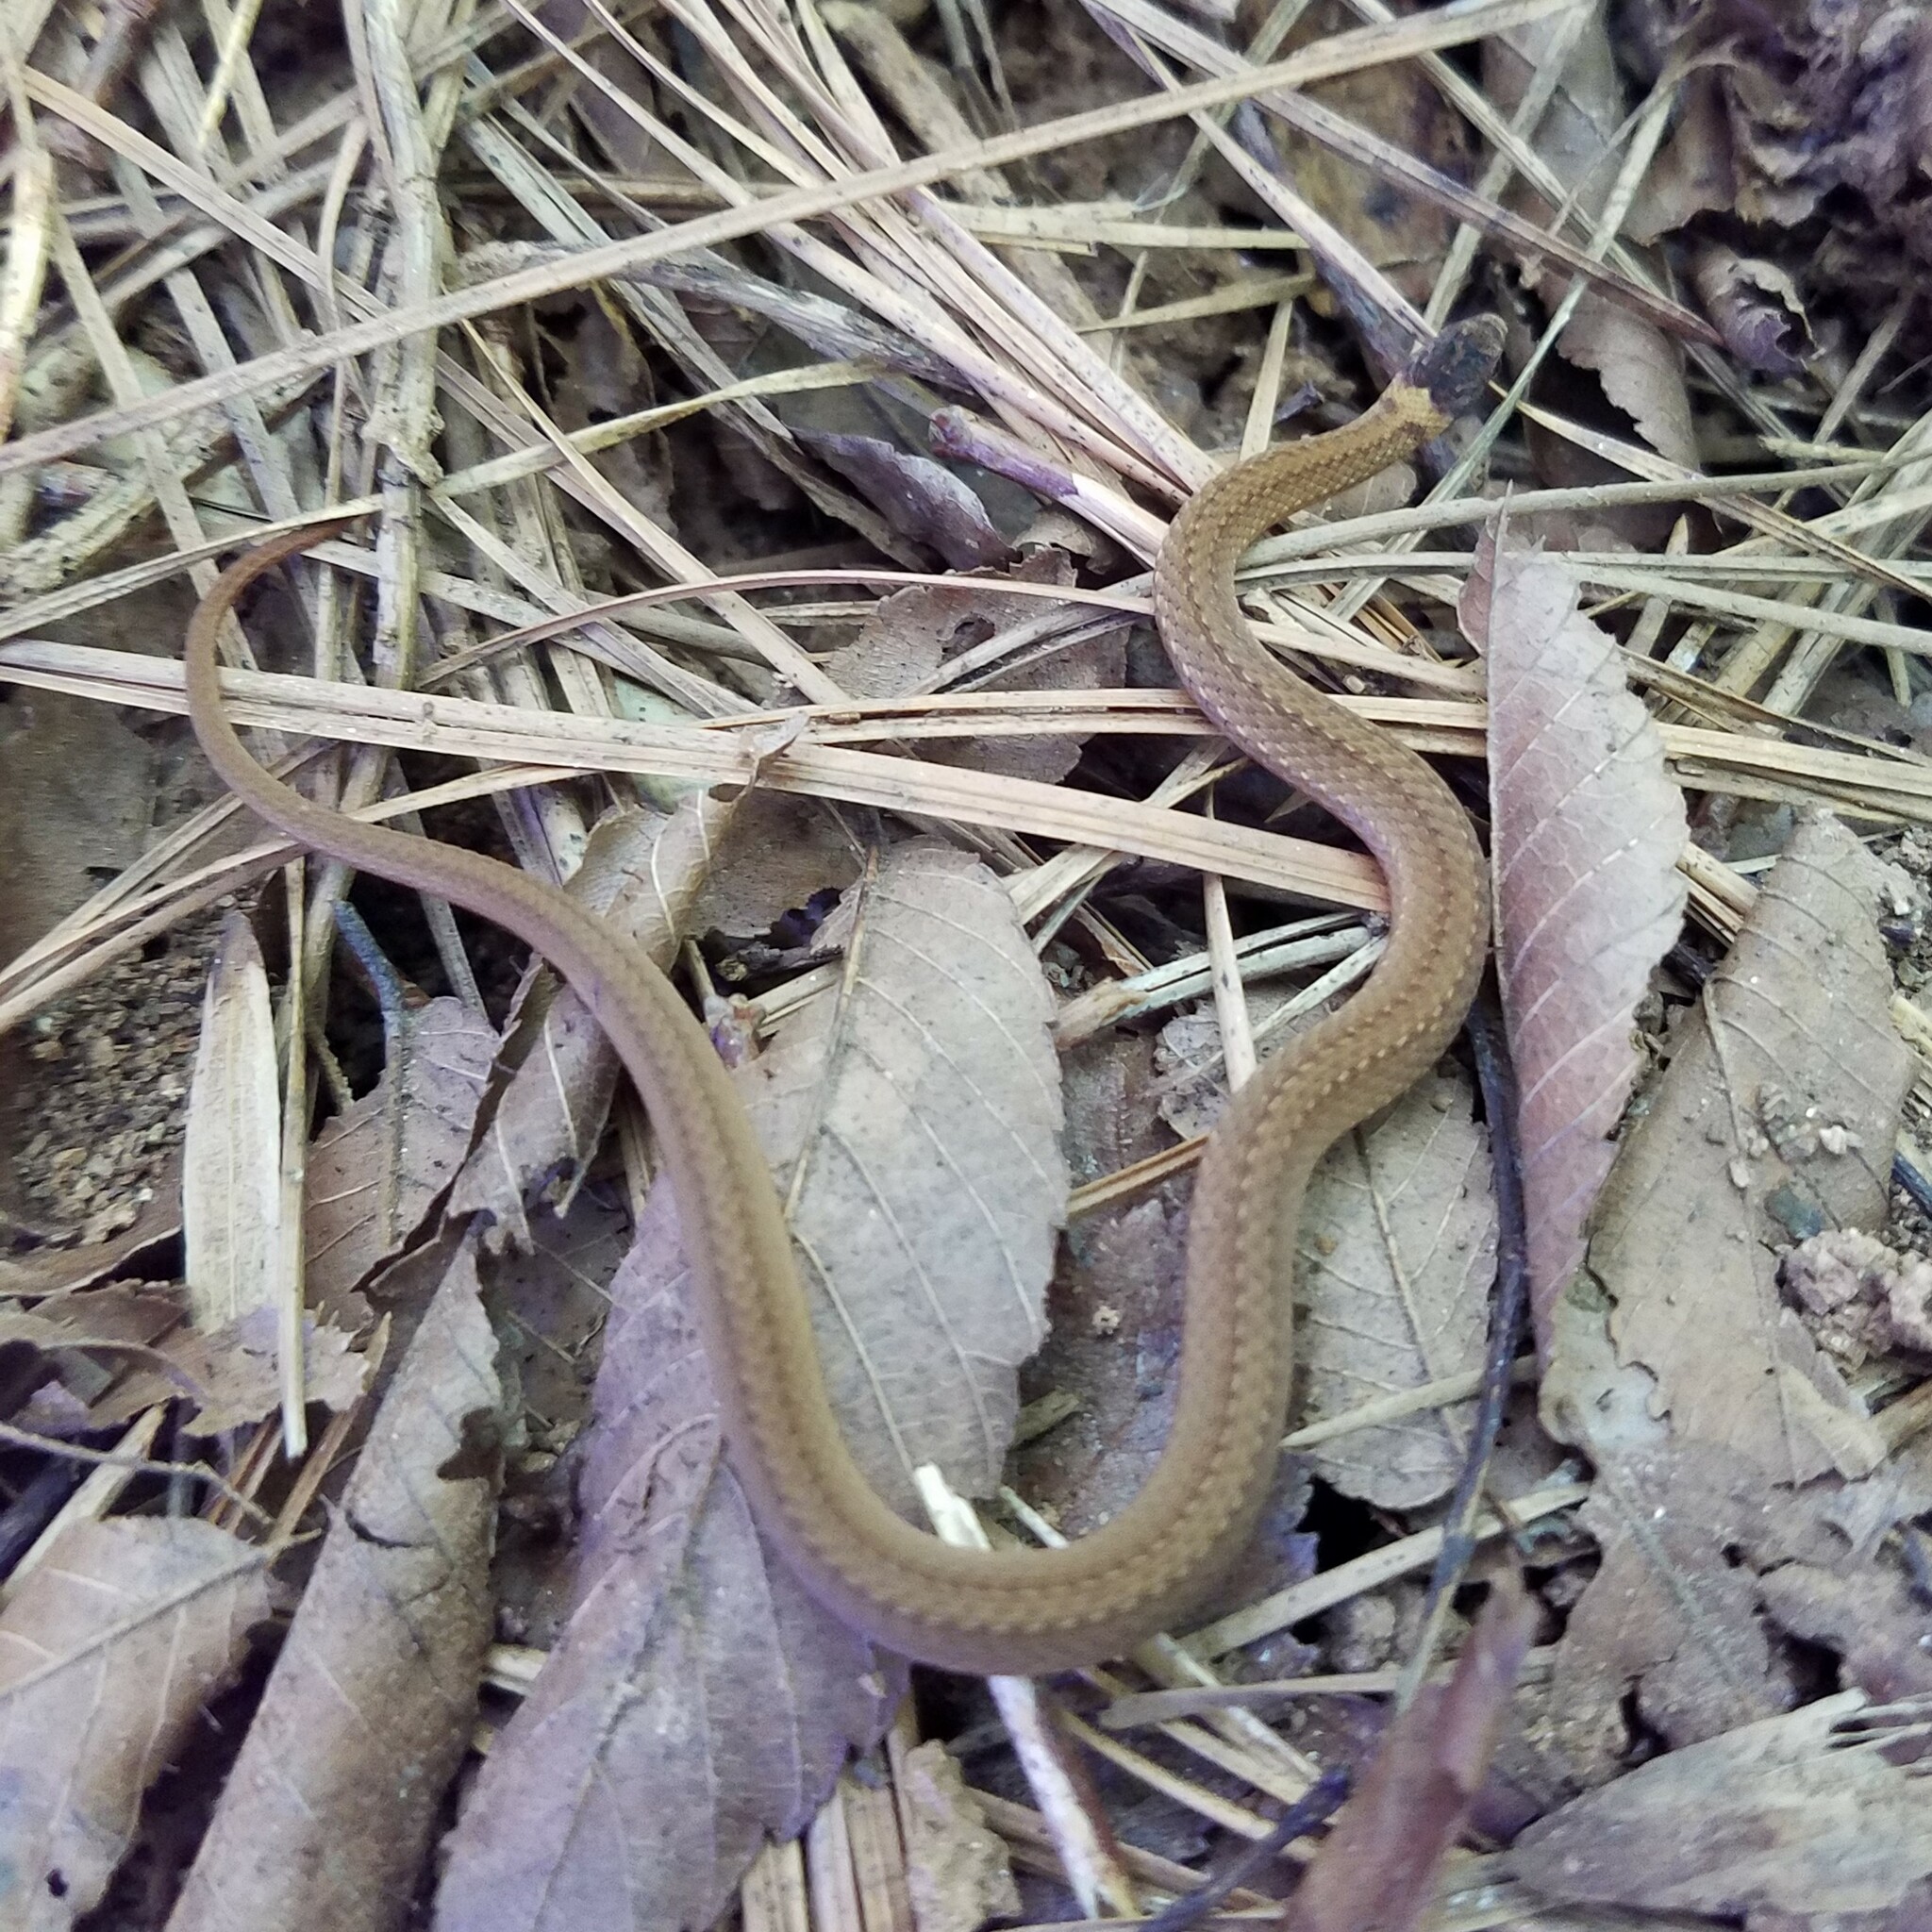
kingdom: Animalia
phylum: Chordata
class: Squamata
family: Colubridae
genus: Storeria
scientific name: Storeria occipitomaculata
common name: Redbelly snake
